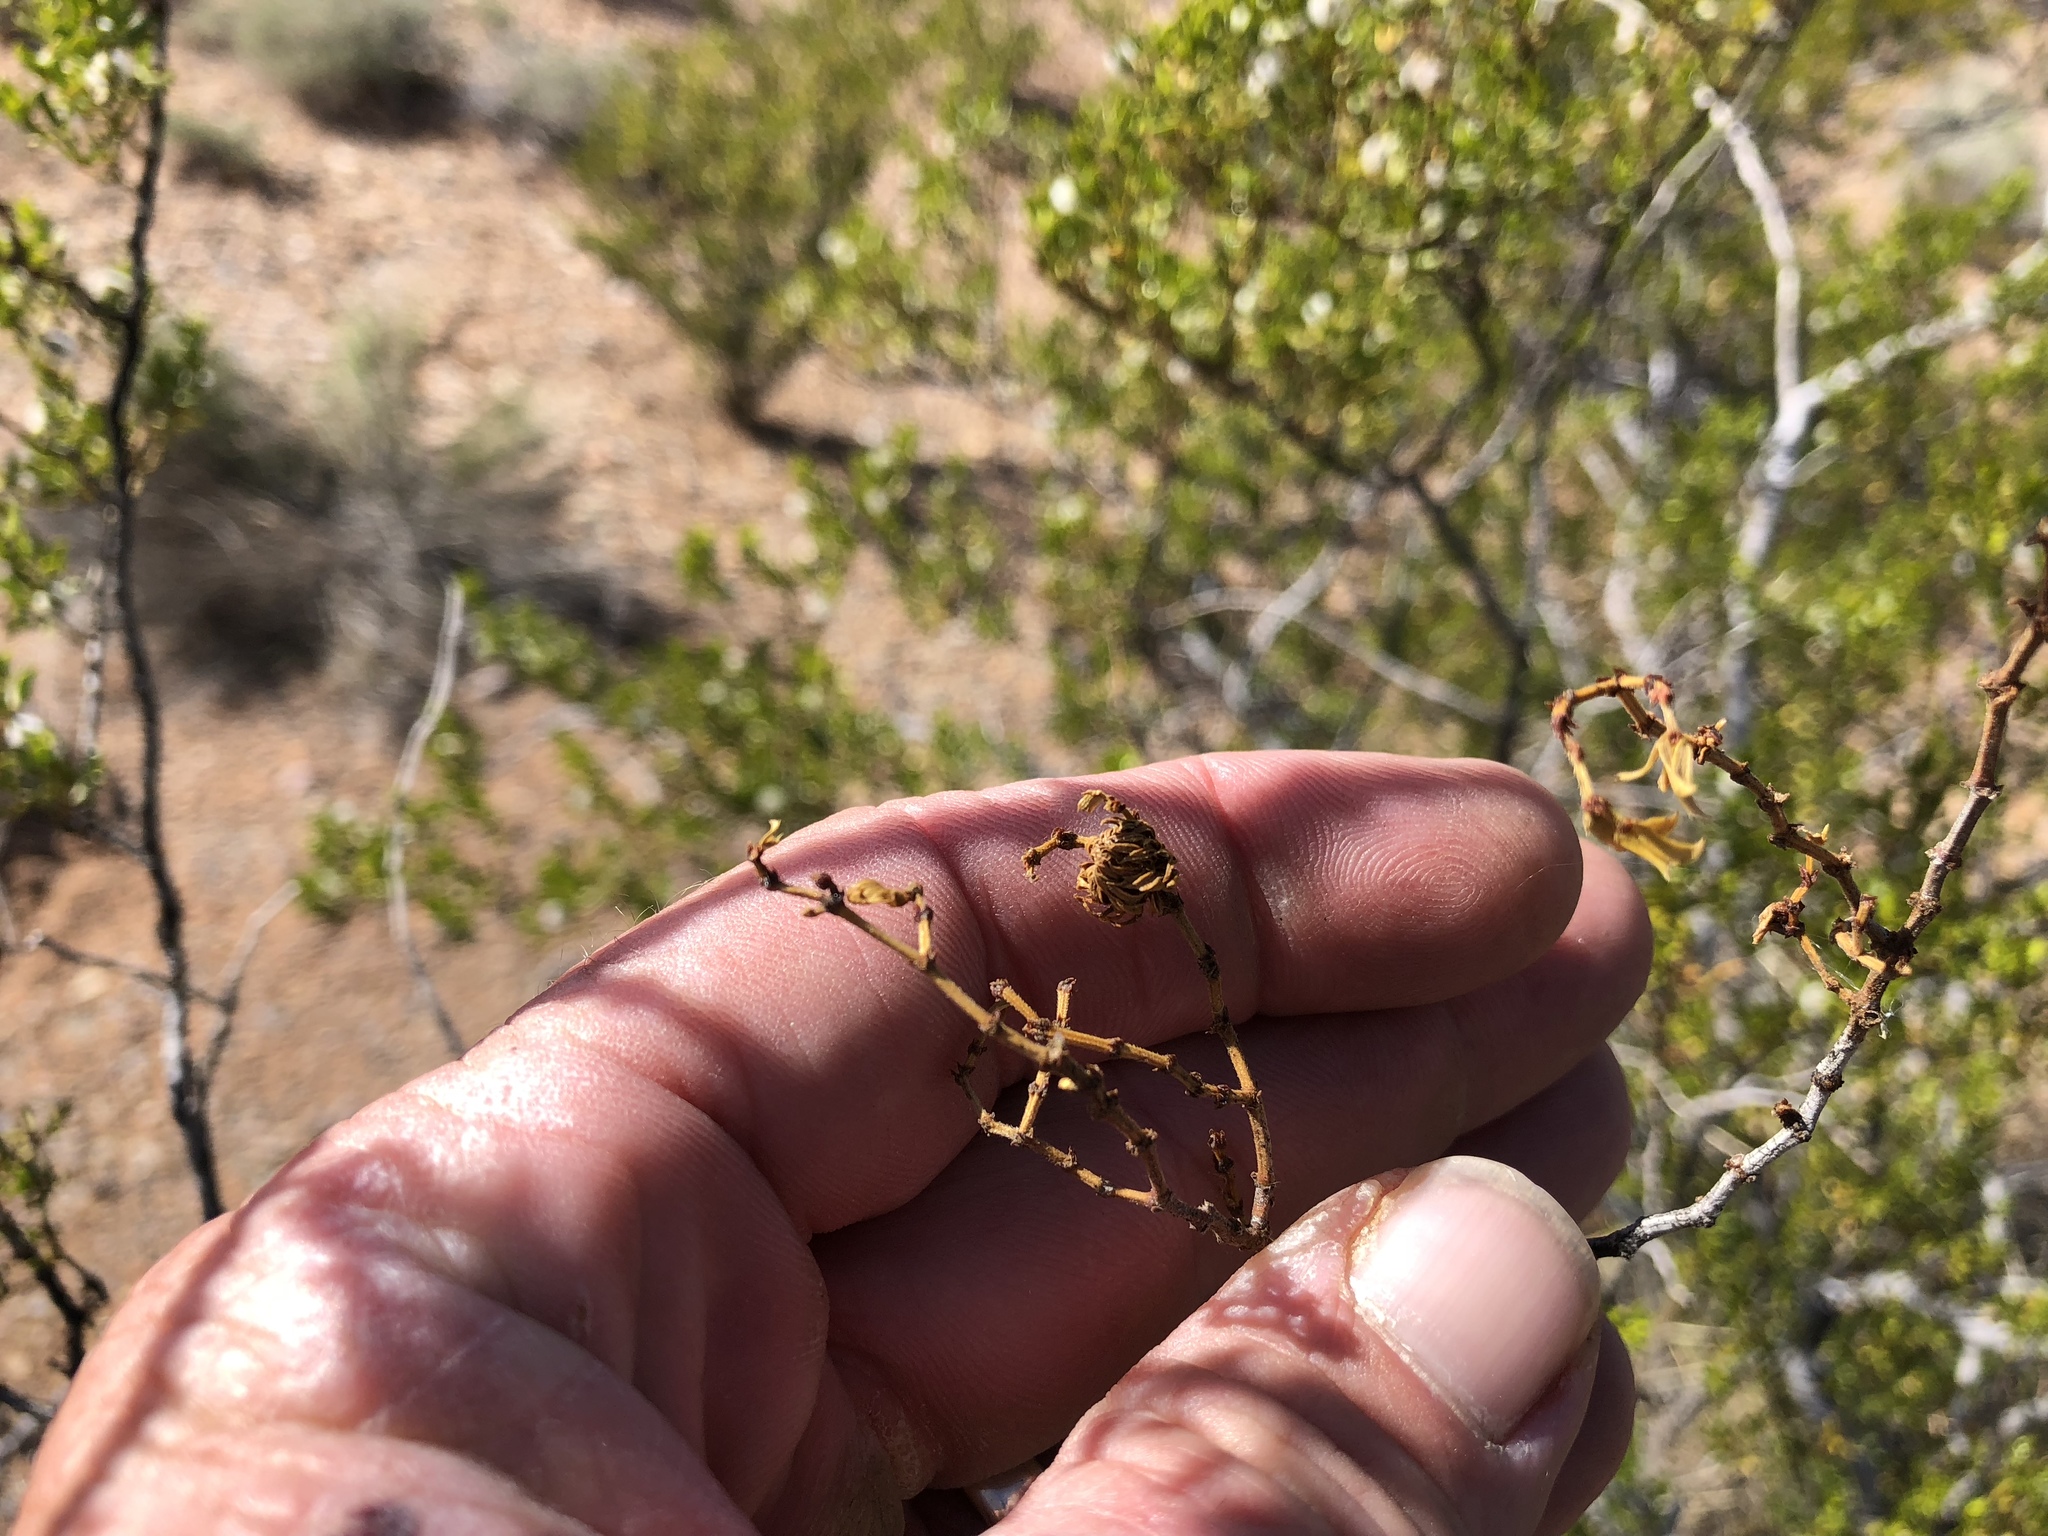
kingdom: Animalia
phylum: Arthropoda
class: Insecta
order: Diptera
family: Cecidomyiidae
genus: Asphondylia
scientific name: Asphondylia rosetta
